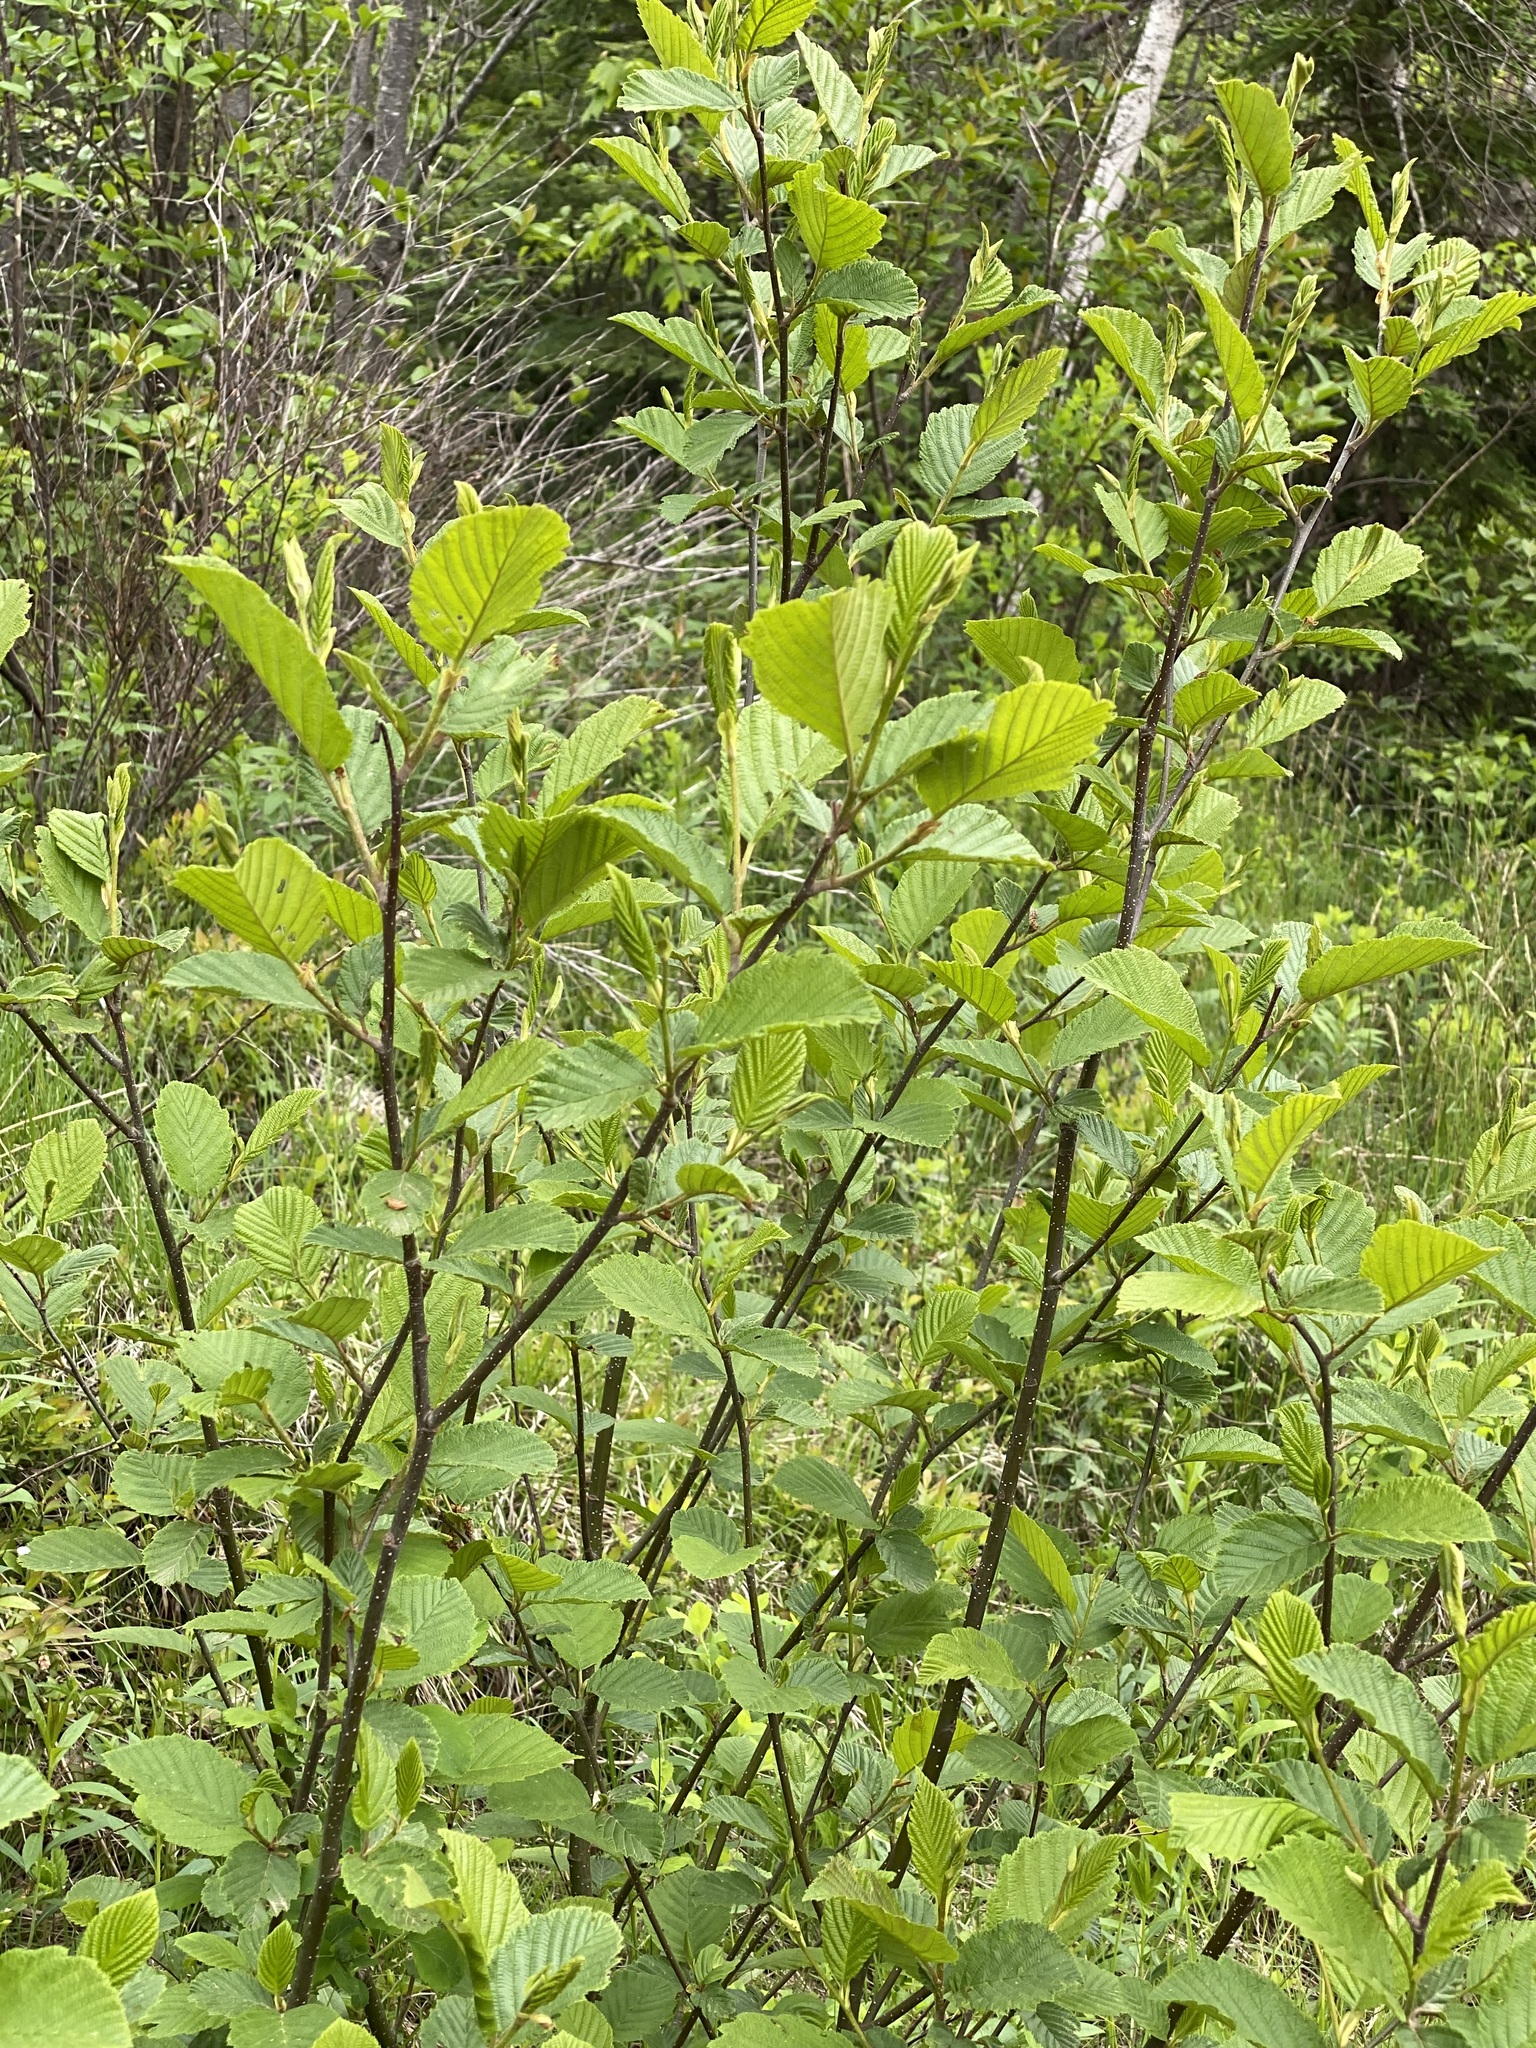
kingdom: Plantae
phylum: Tracheophyta
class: Magnoliopsida
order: Fagales
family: Betulaceae
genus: Alnus
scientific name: Alnus incana
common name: Grey alder
